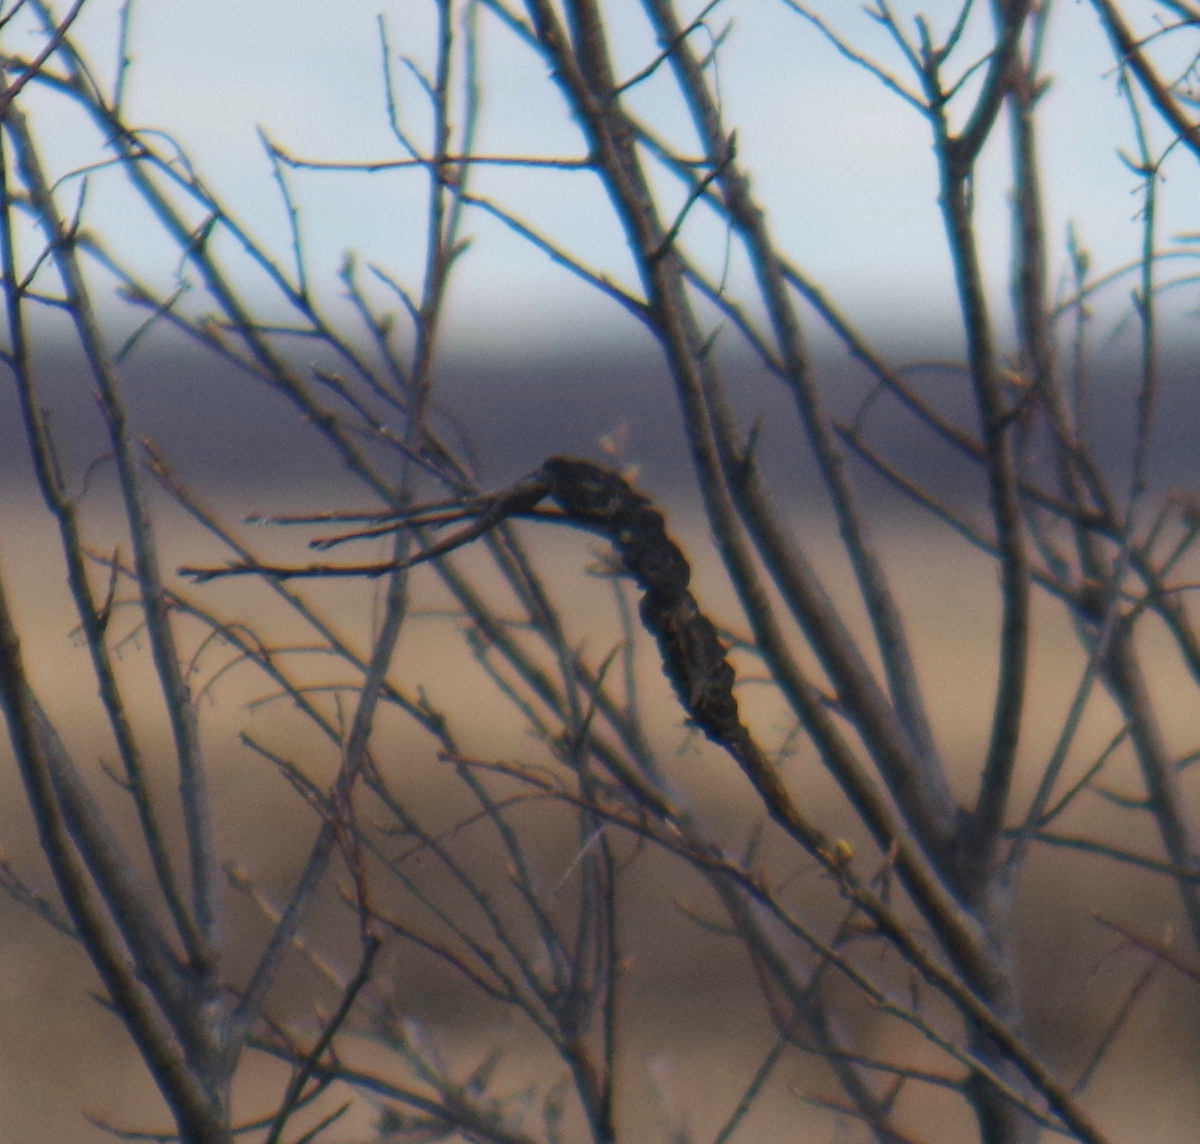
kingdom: Fungi
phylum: Ascomycota
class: Dothideomycetes
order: Venturiales
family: Venturiaceae
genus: Apiosporina
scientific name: Apiosporina morbosa
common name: Black knot
